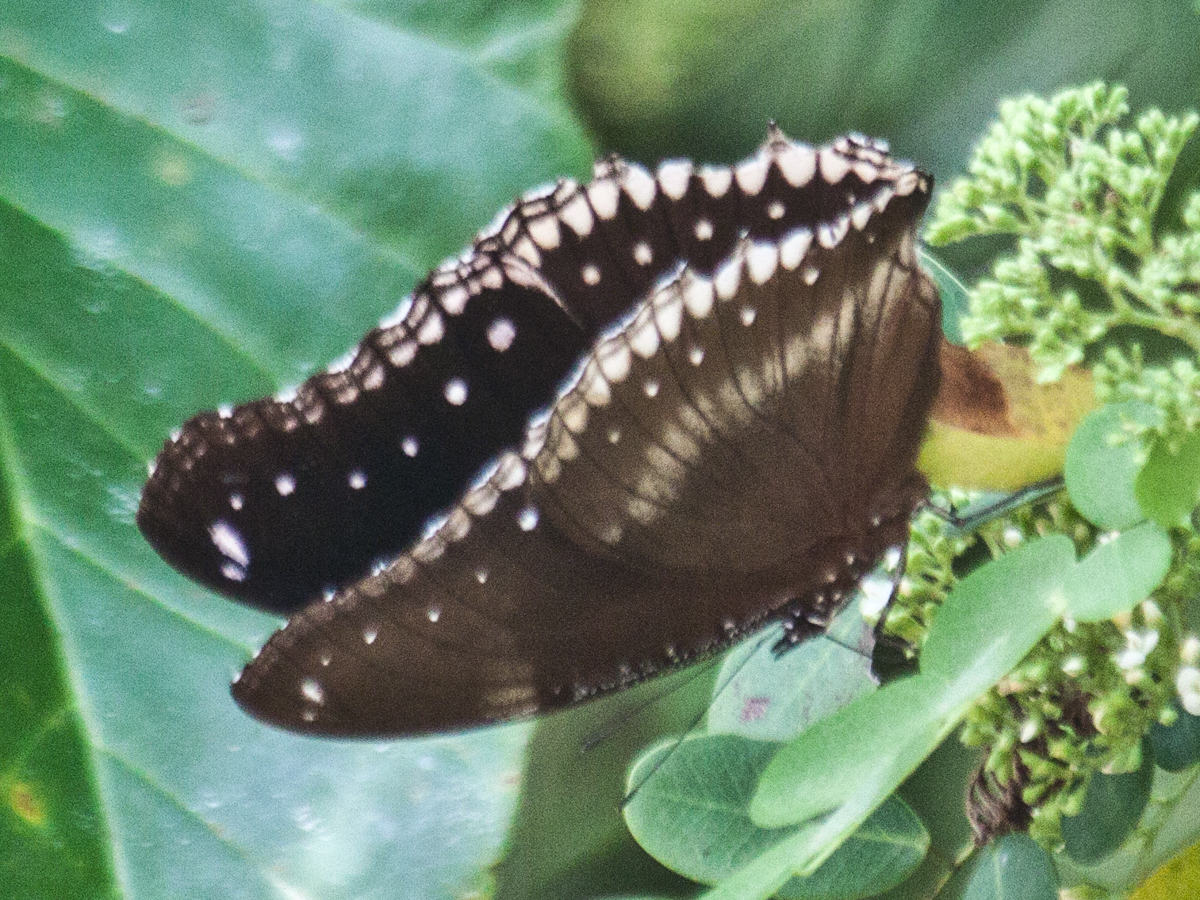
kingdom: Animalia
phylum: Arthropoda
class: Insecta
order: Lepidoptera
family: Nymphalidae
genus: Hypolimnas
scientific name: Hypolimnas bolina
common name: Great eggfly
